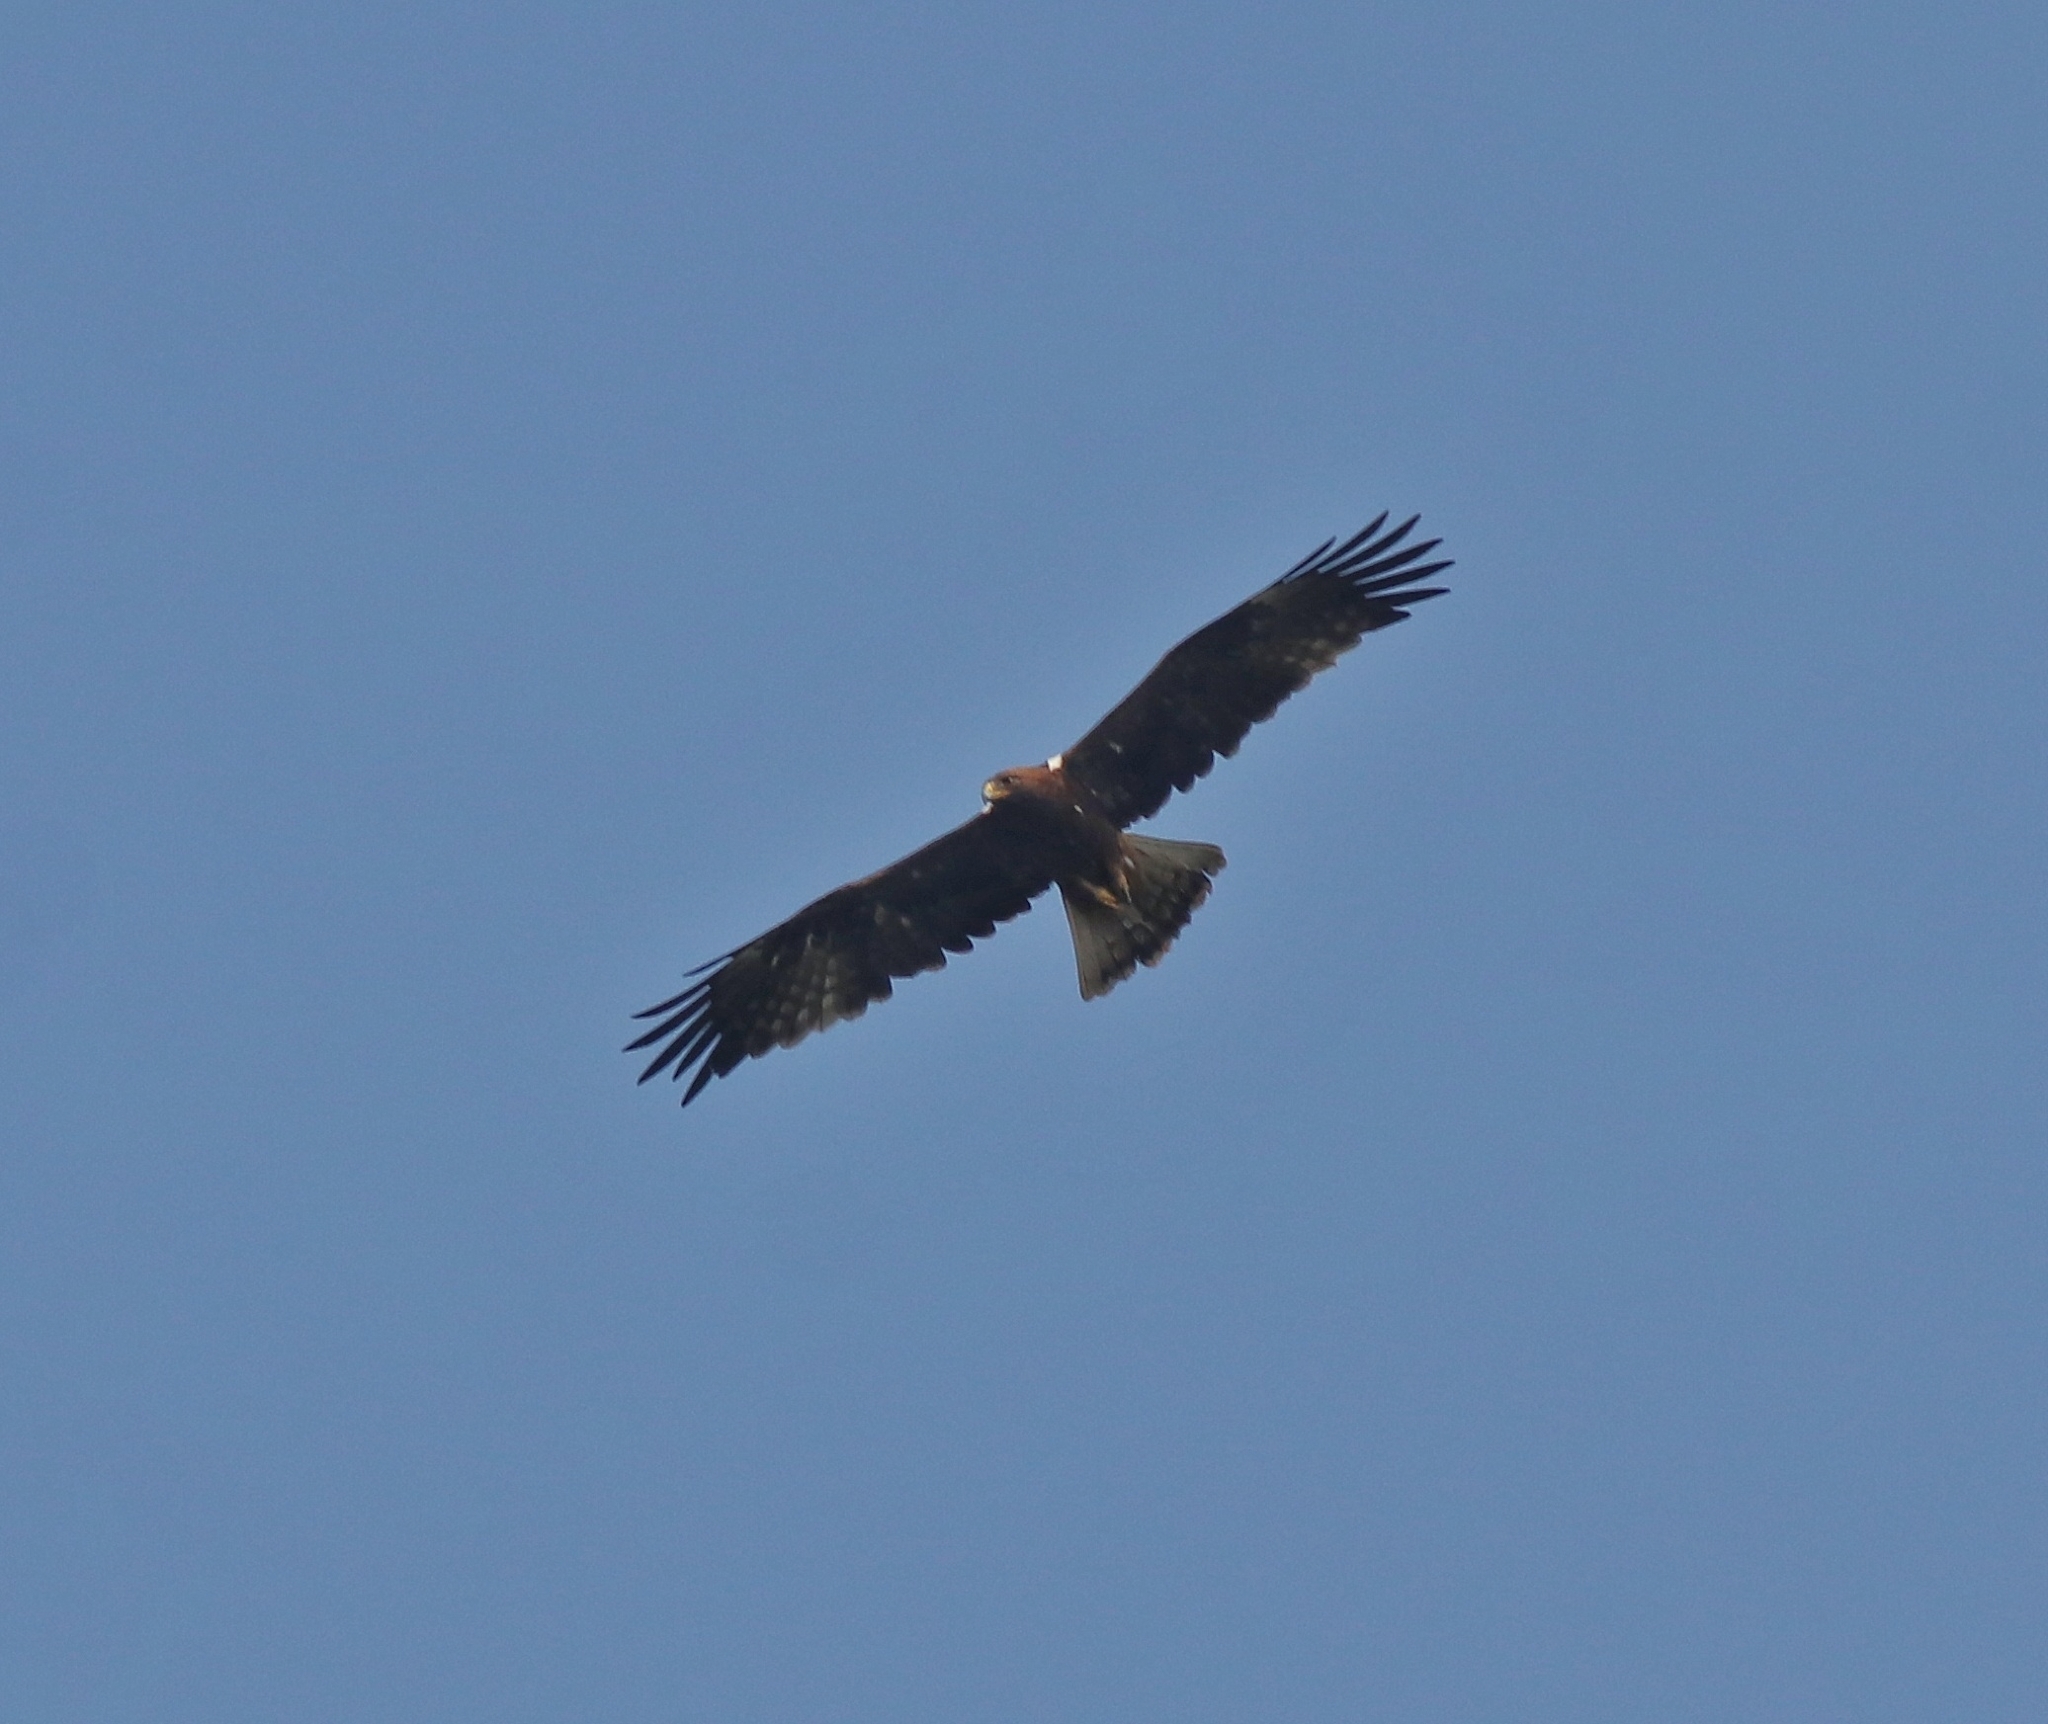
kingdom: Animalia
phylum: Chordata
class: Aves
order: Accipitriformes
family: Accipitridae
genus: Hieraaetus
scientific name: Hieraaetus pennatus
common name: Booted eagle
